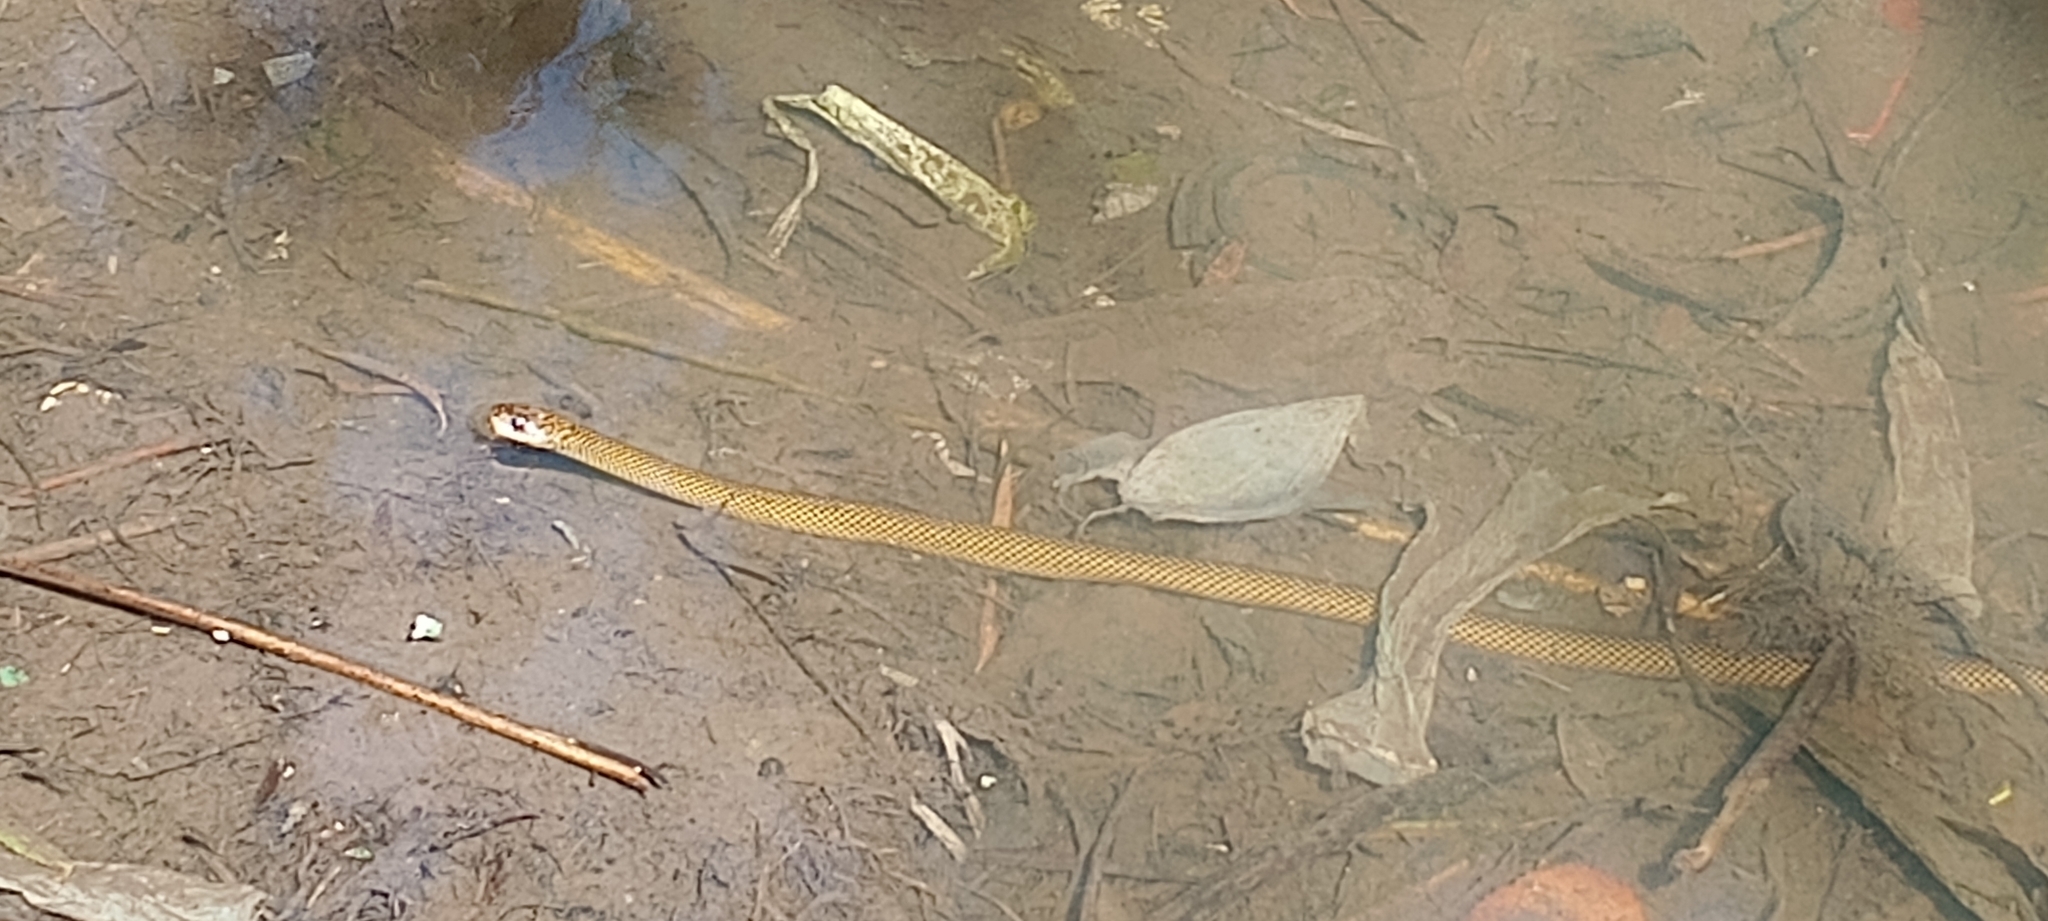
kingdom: Animalia
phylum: Chordata
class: Squamata
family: Colubridae
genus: Erythrolamprus
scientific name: Erythrolamprus semiaureus
